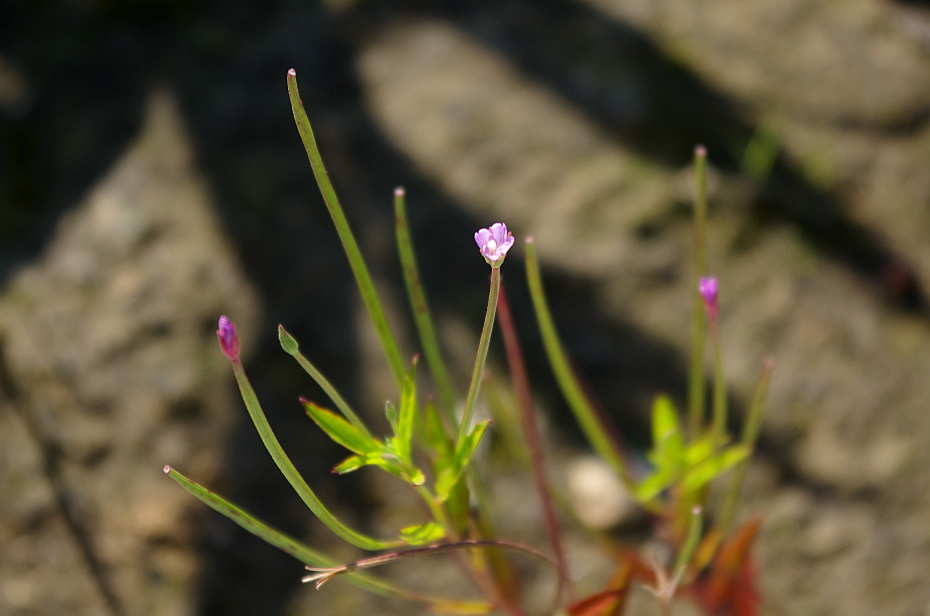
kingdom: Plantae
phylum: Tracheophyta
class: Magnoliopsida
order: Myrtales
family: Onagraceae
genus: Epilobium
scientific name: Epilobium ciliatum
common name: American willowherb
